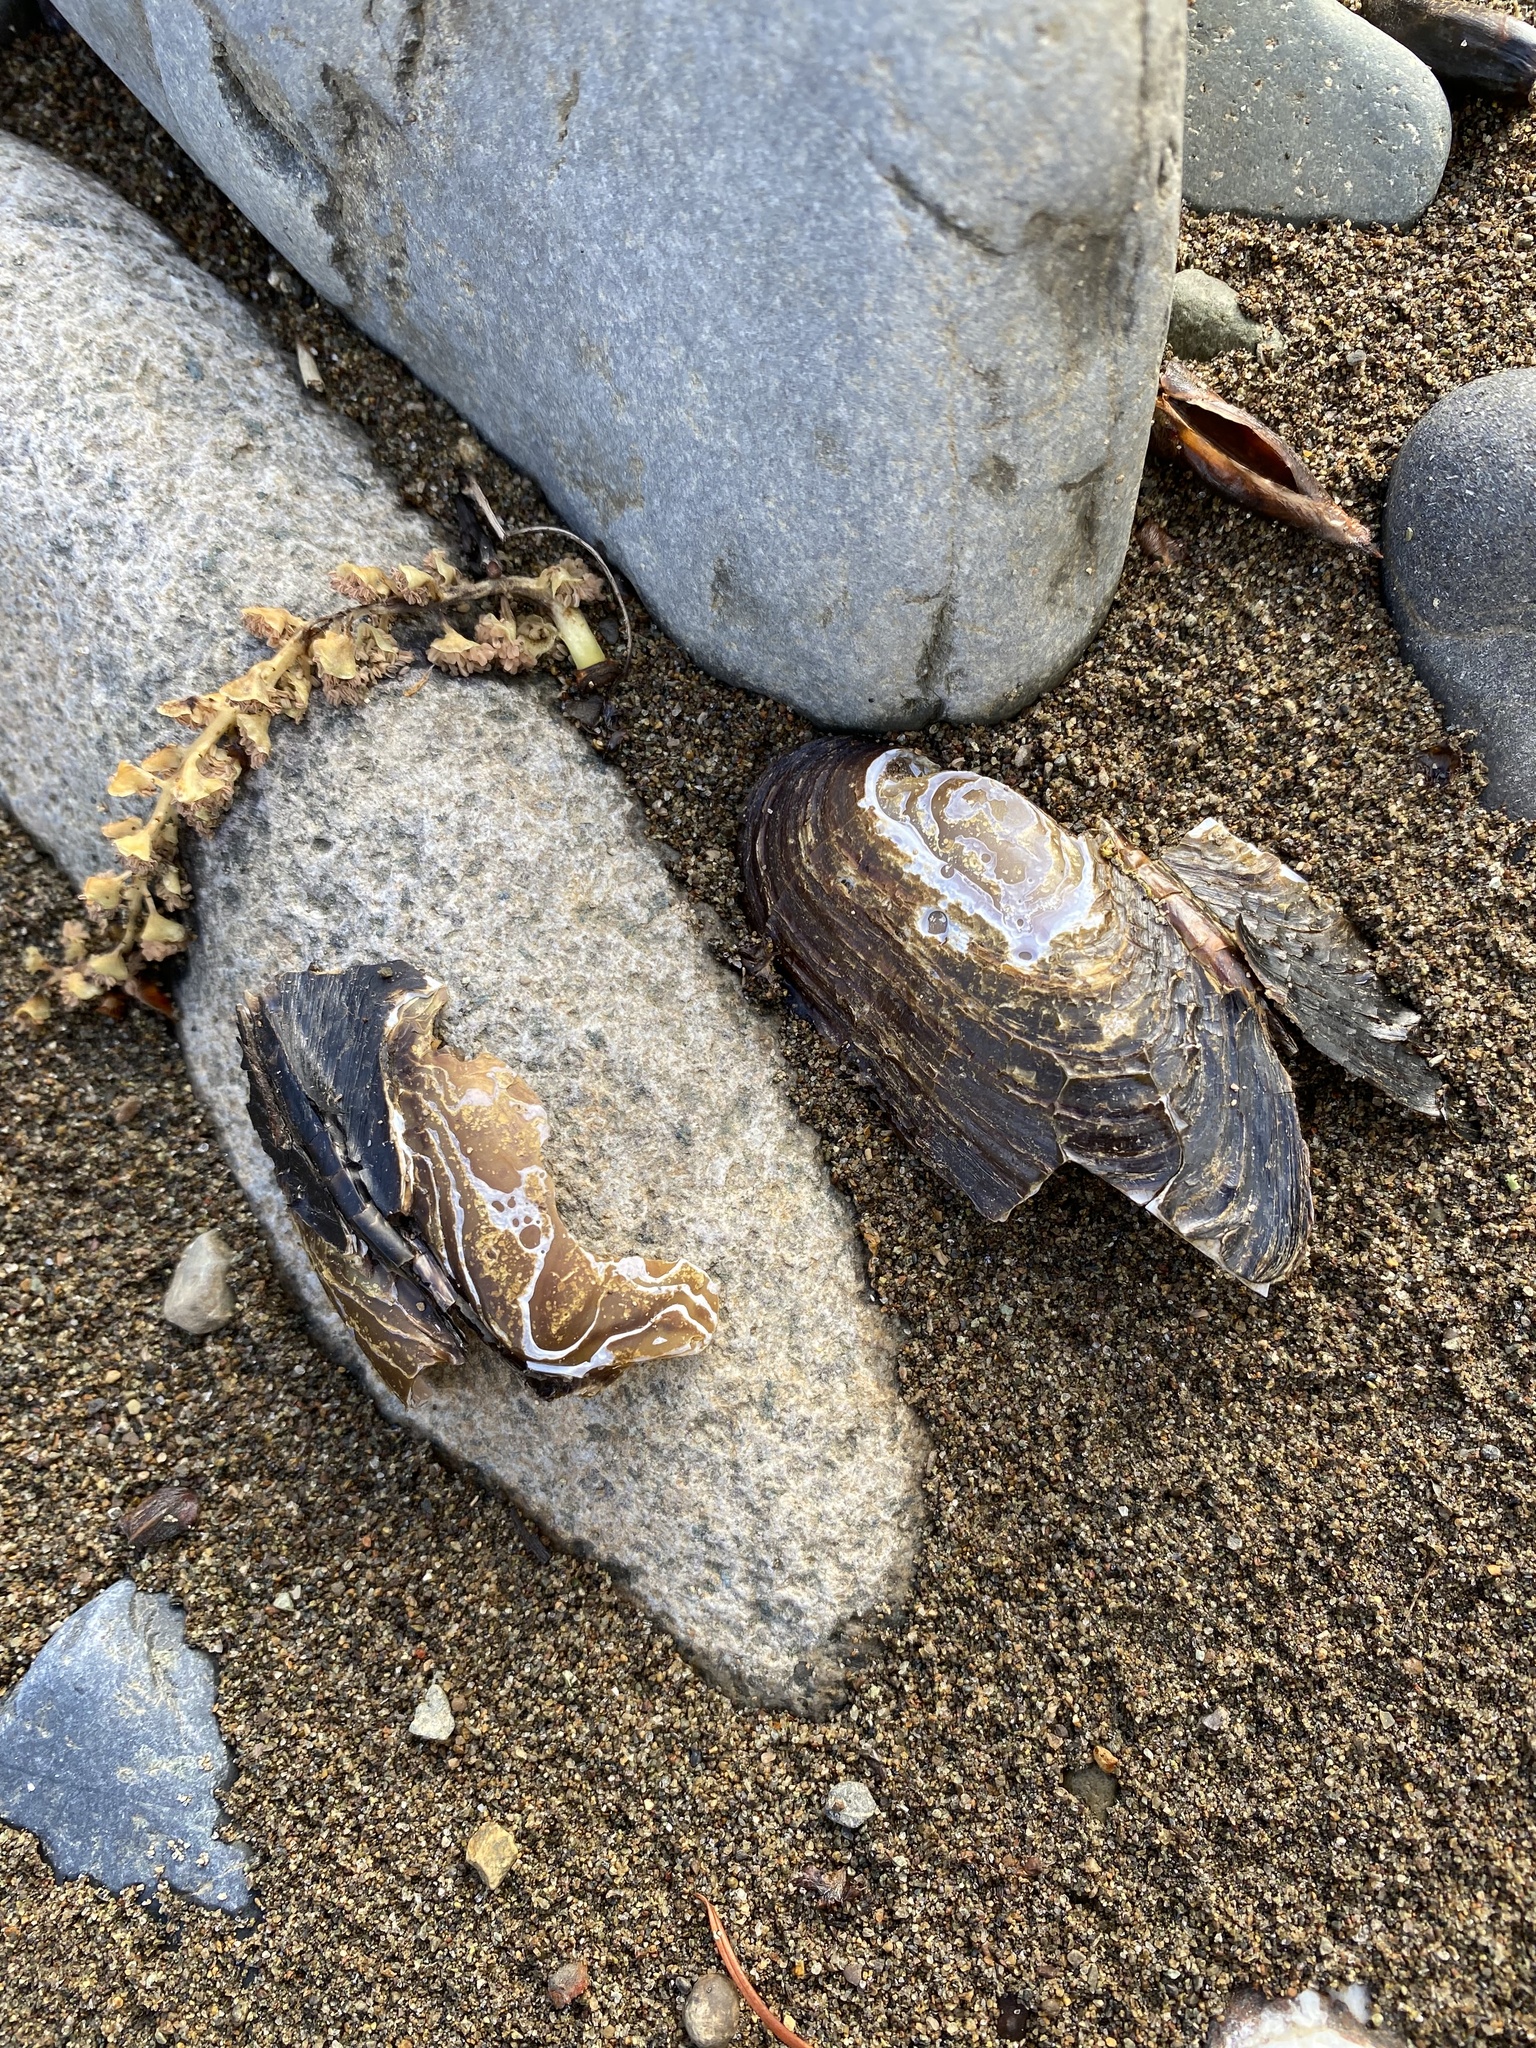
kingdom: Animalia
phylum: Mollusca
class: Bivalvia
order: Unionida
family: Margaritiferidae
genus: Margaritifera
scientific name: Margaritifera falcata
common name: Western pearlshell
